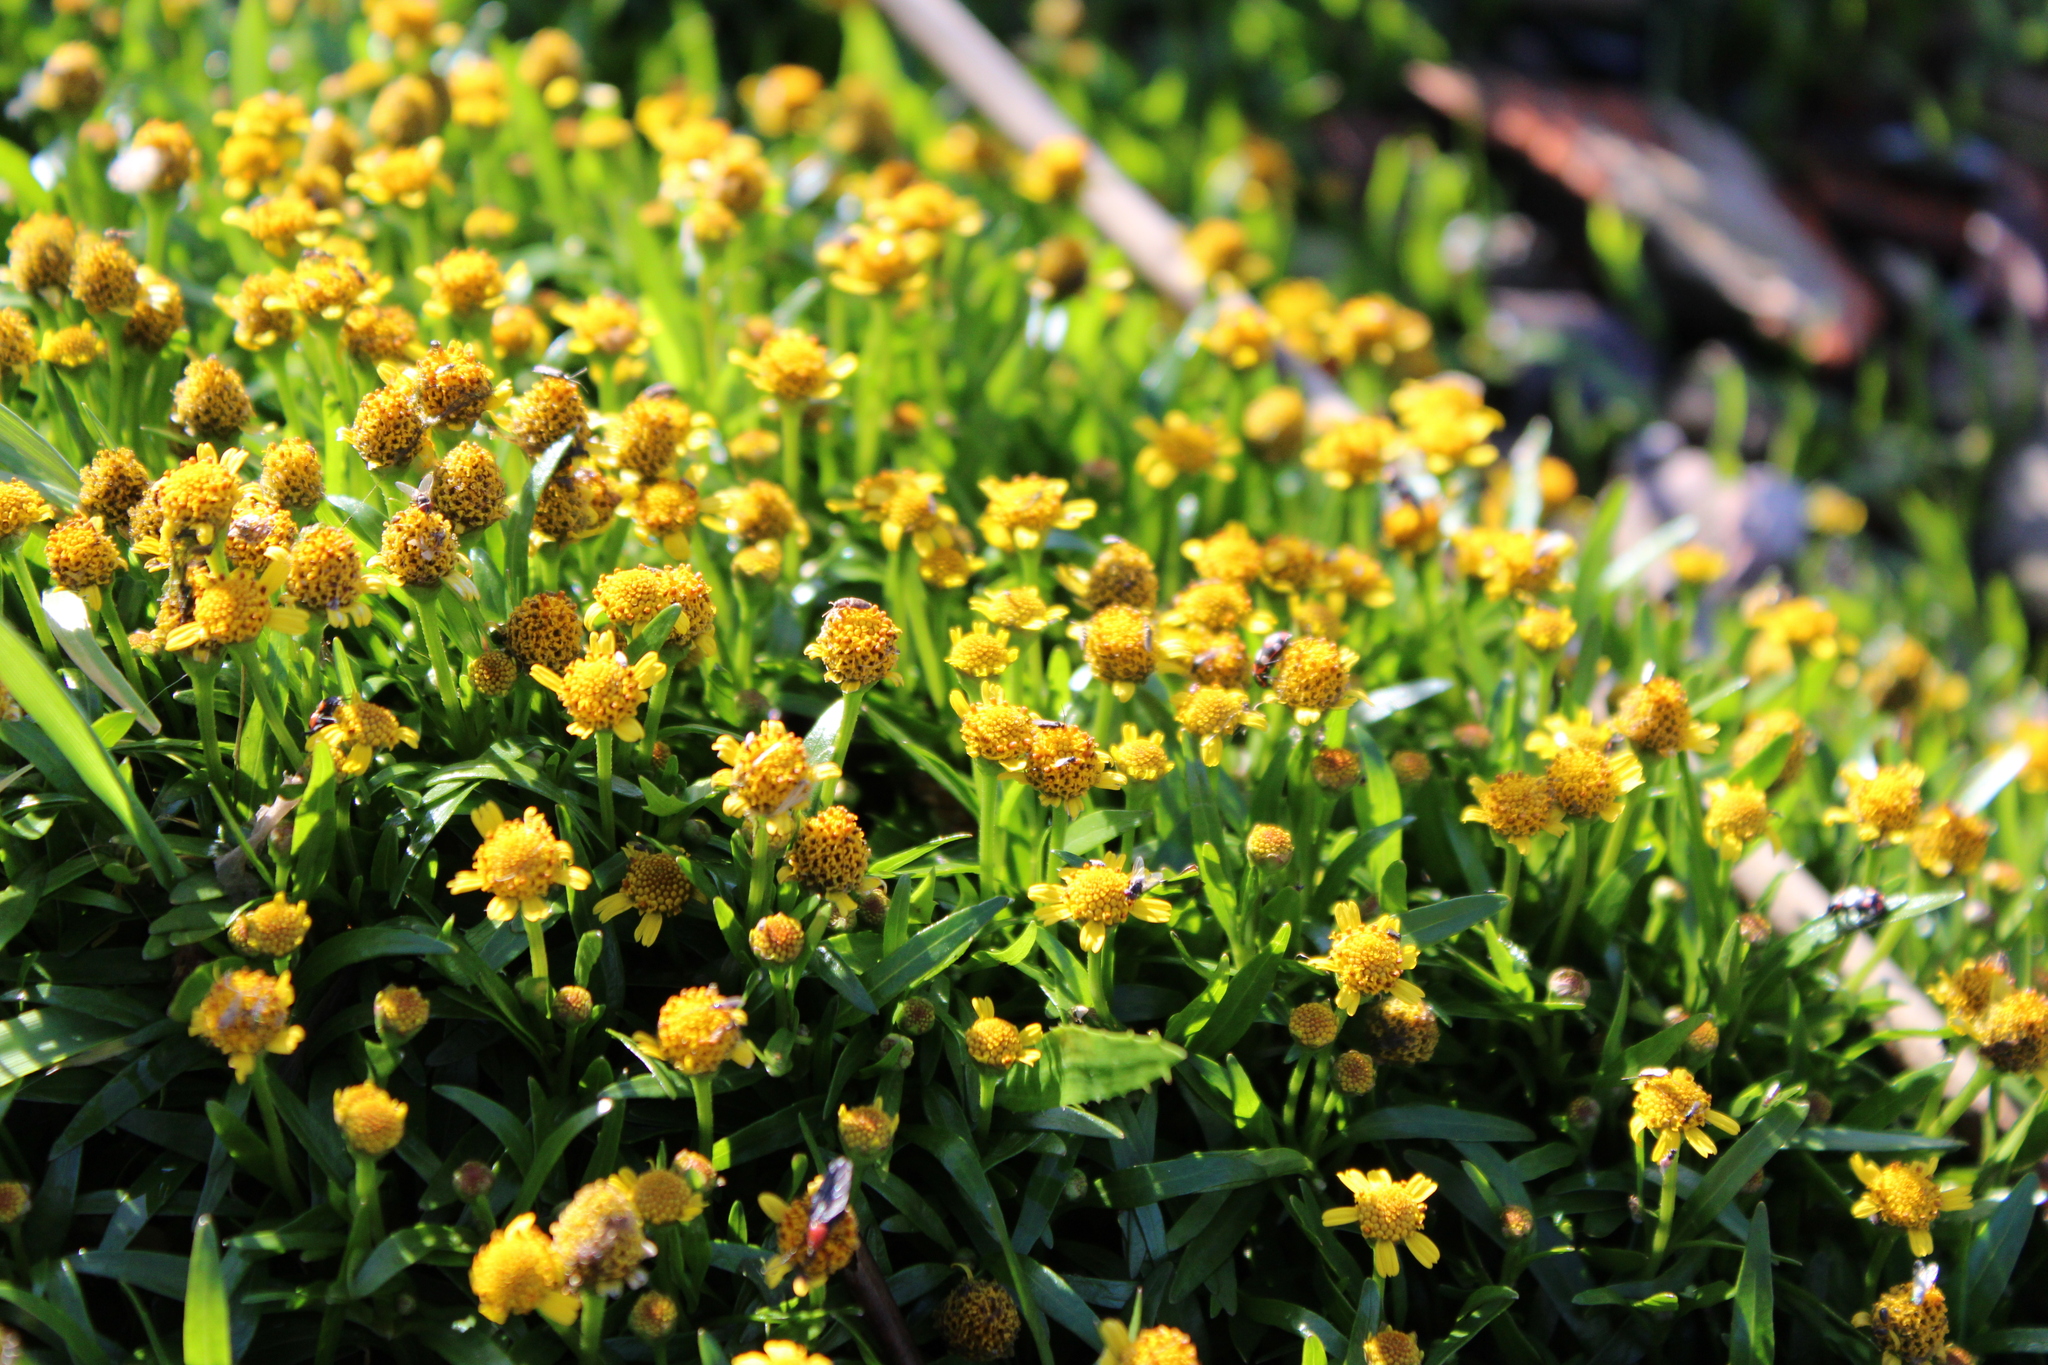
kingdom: Plantae
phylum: Tracheophyta
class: Magnoliopsida
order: Asterales
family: Asteraceae
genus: Acmella
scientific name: Acmella decumbens
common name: Creeping spotflower
